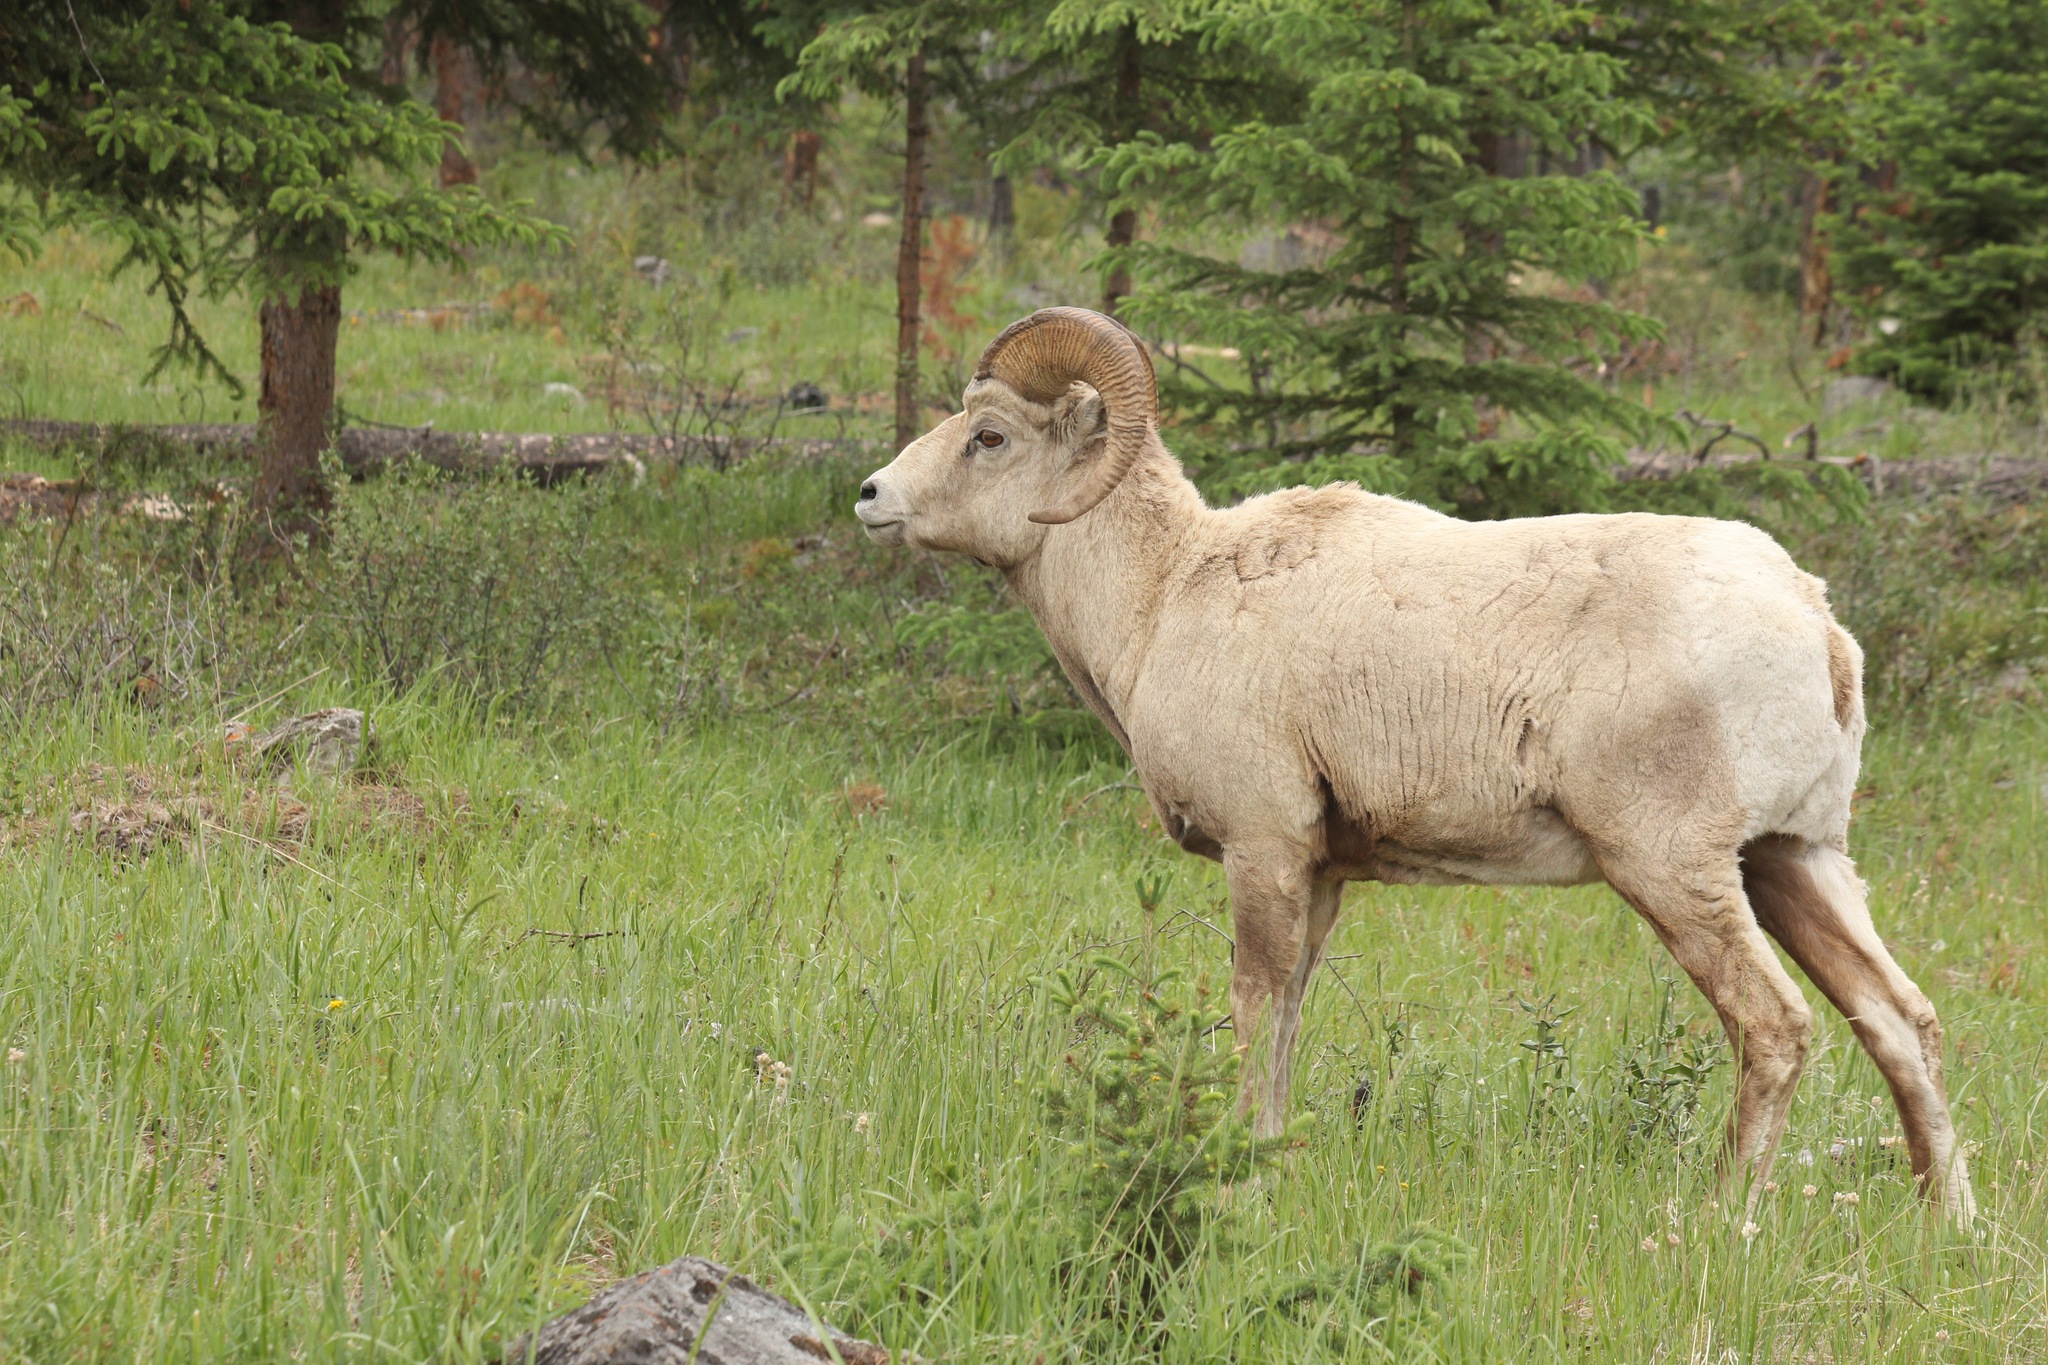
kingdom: Animalia
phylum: Chordata
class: Mammalia
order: Artiodactyla
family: Bovidae
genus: Ovis
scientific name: Ovis canadensis
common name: Bighorn sheep
